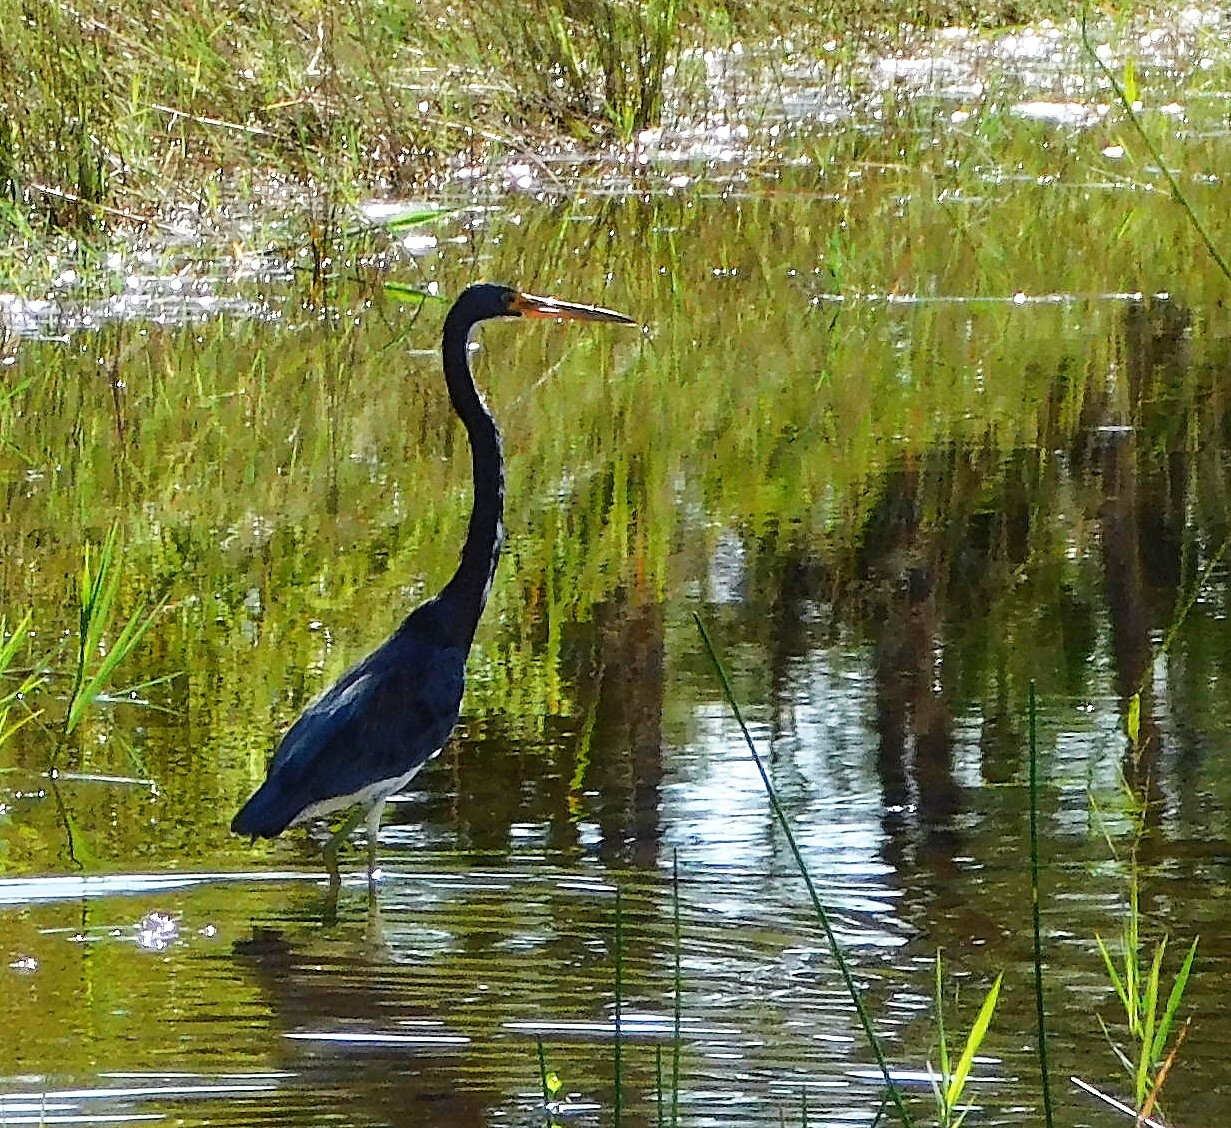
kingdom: Animalia
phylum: Chordata
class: Aves
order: Pelecaniformes
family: Ardeidae
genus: Egretta
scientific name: Egretta tricolor
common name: Tricolored heron
